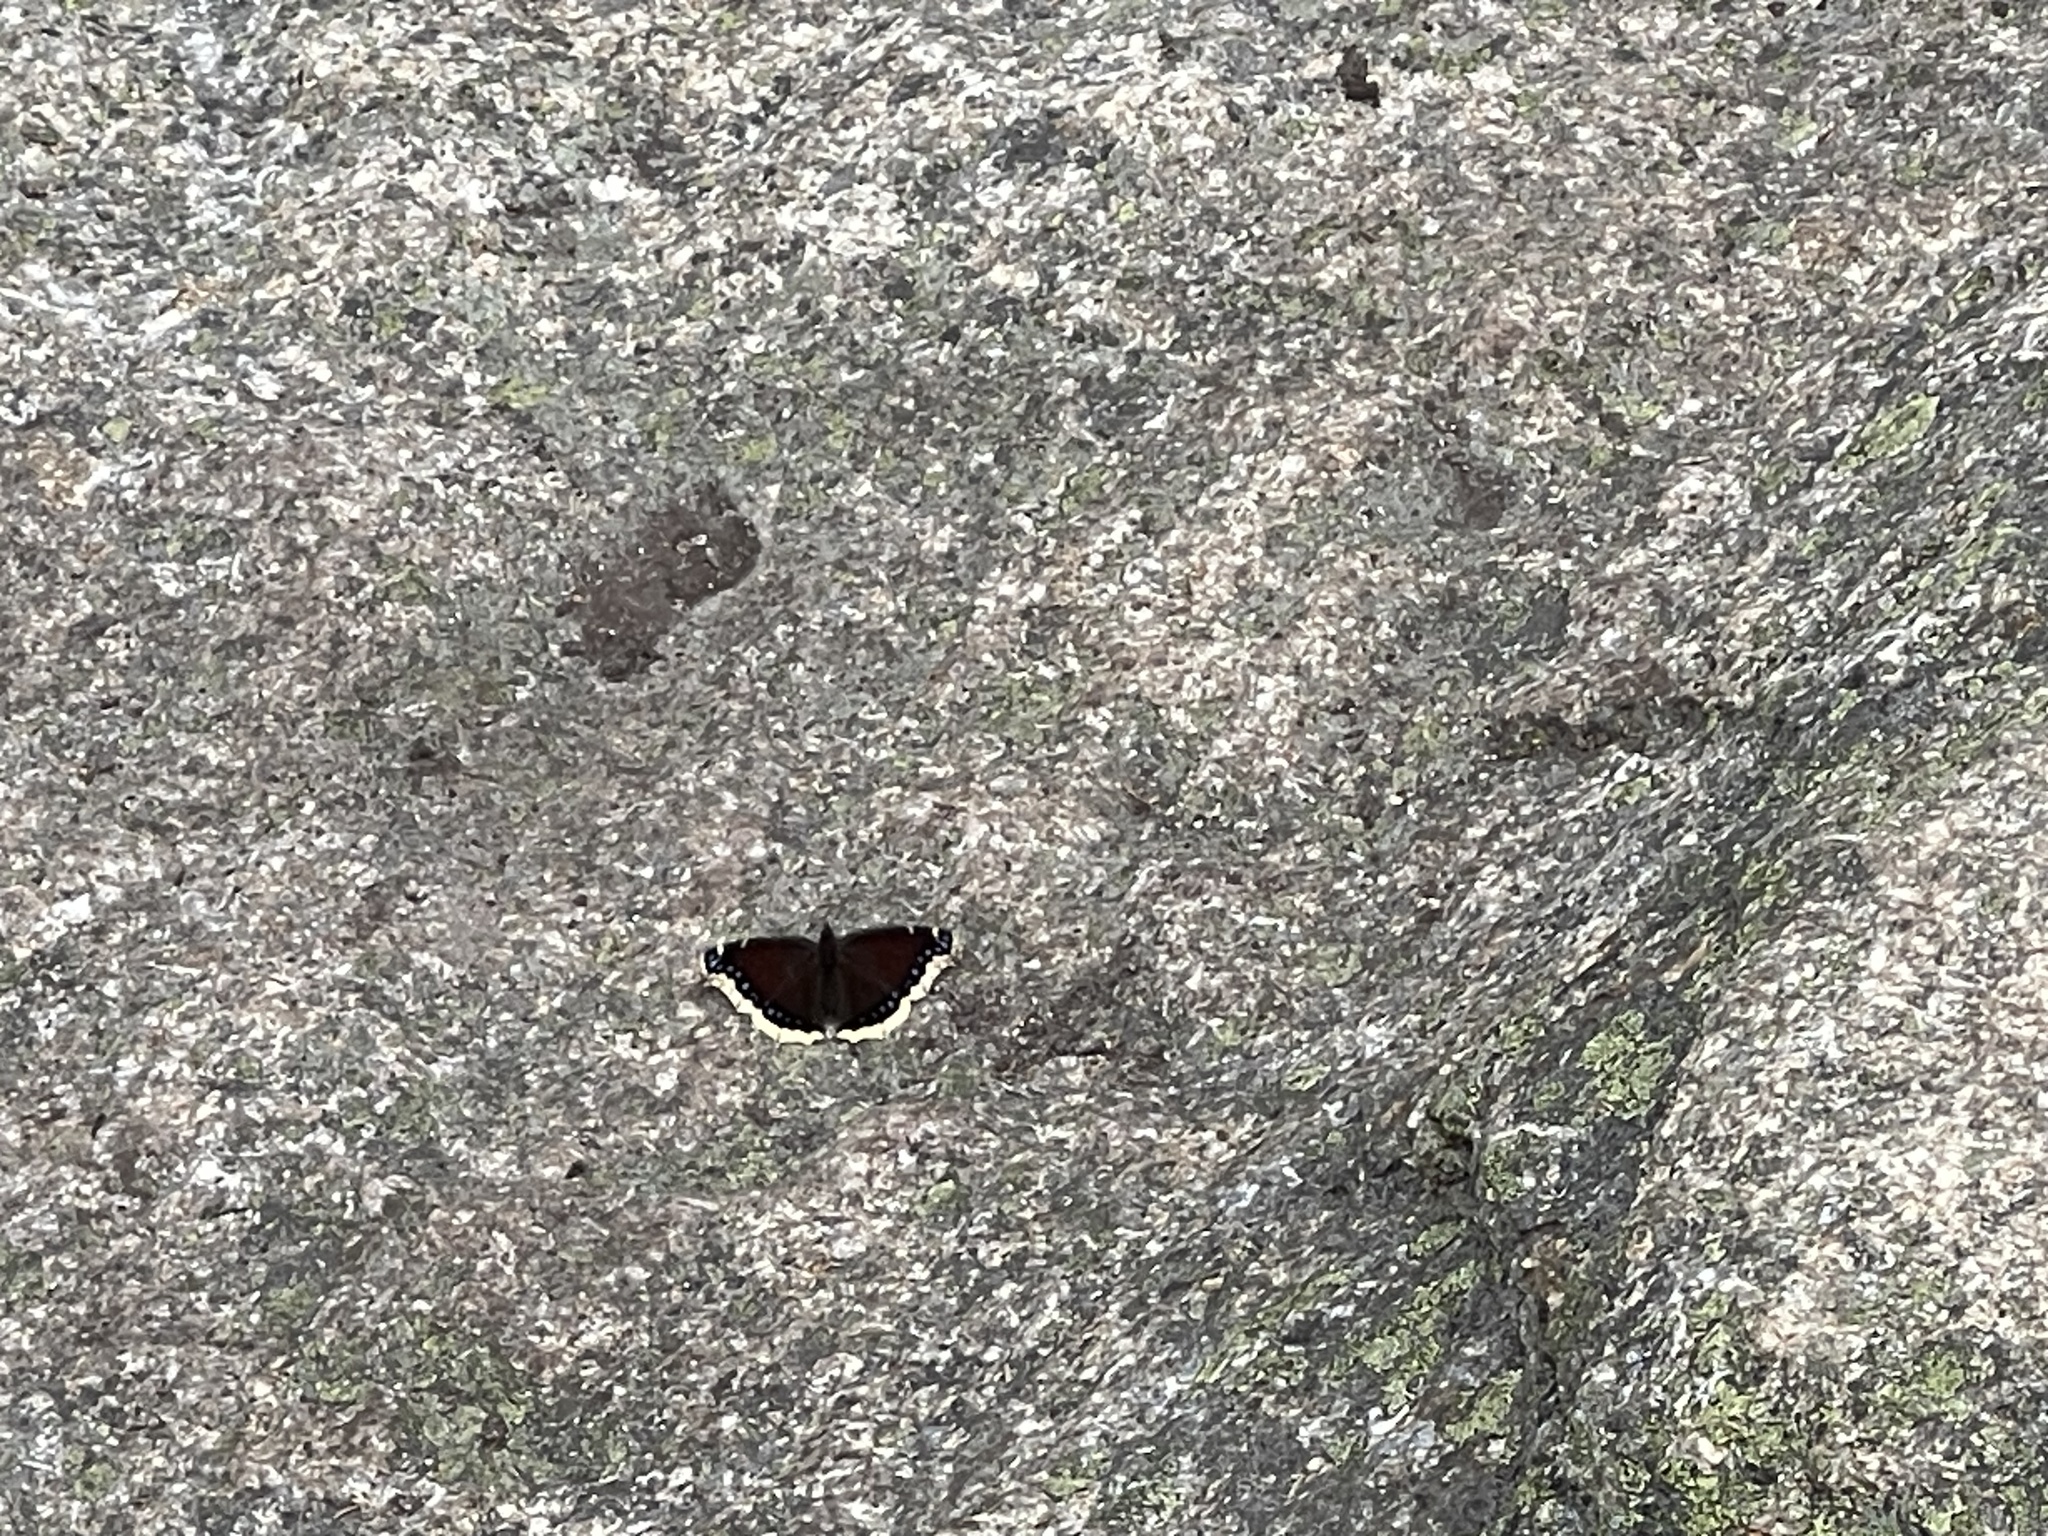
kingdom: Animalia
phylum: Arthropoda
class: Insecta
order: Lepidoptera
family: Nymphalidae
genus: Nymphalis
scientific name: Nymphalis antiopa
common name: Camberwell beauty
